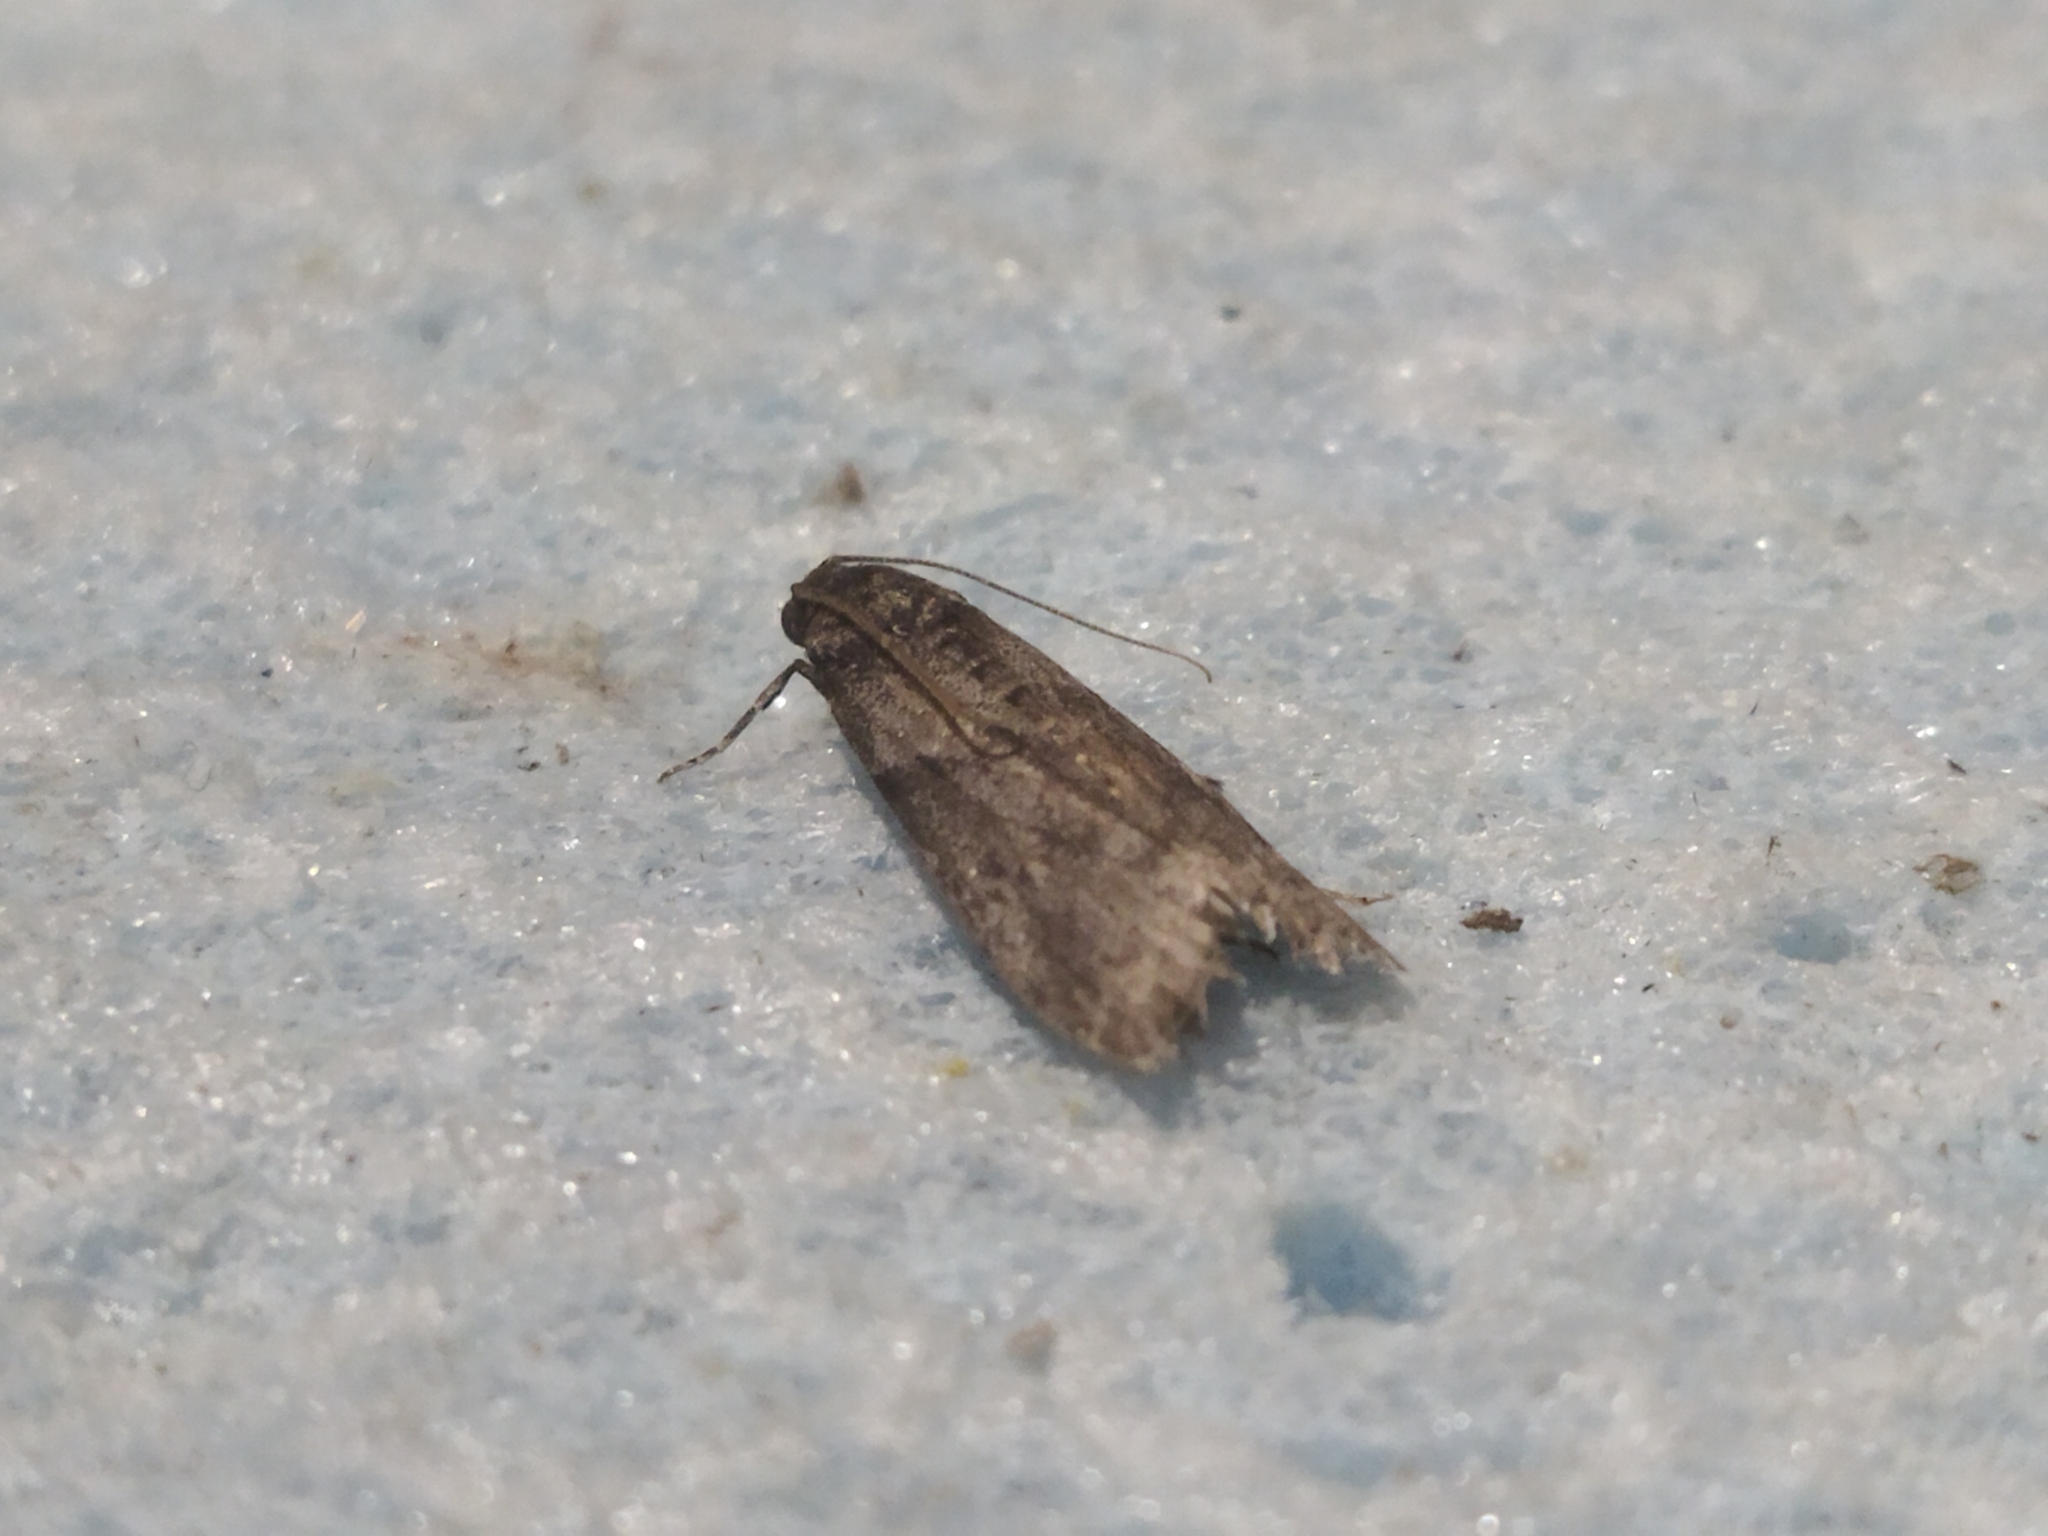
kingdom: Animalia
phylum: Arthropoda
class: Insecta
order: Lepidoptera
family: Pyralidae
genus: Ectomyelois
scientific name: Ectomyelois ceratoniae
